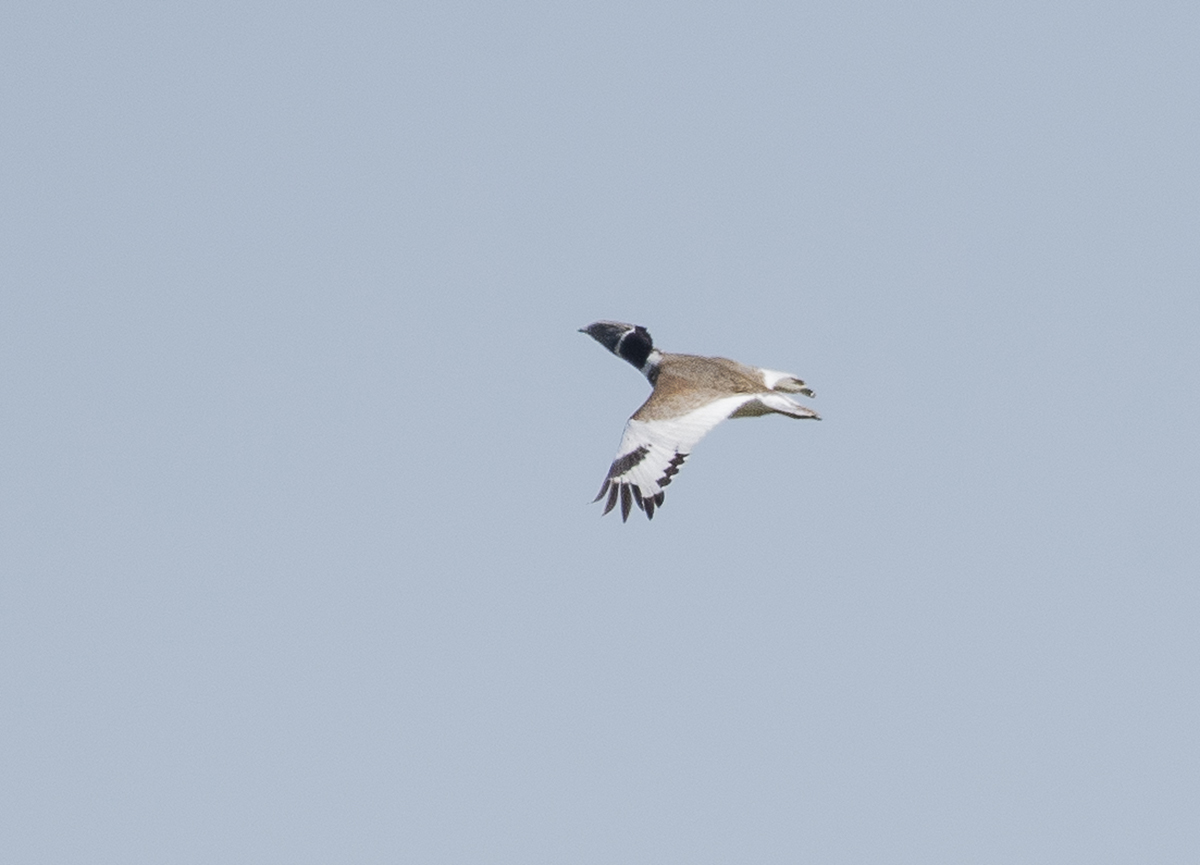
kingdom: Animalia
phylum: Chordata
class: Aves
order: Otidiformes
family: Otididae
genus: Tetrax
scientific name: Tetrax tetrax
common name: Little bustard
